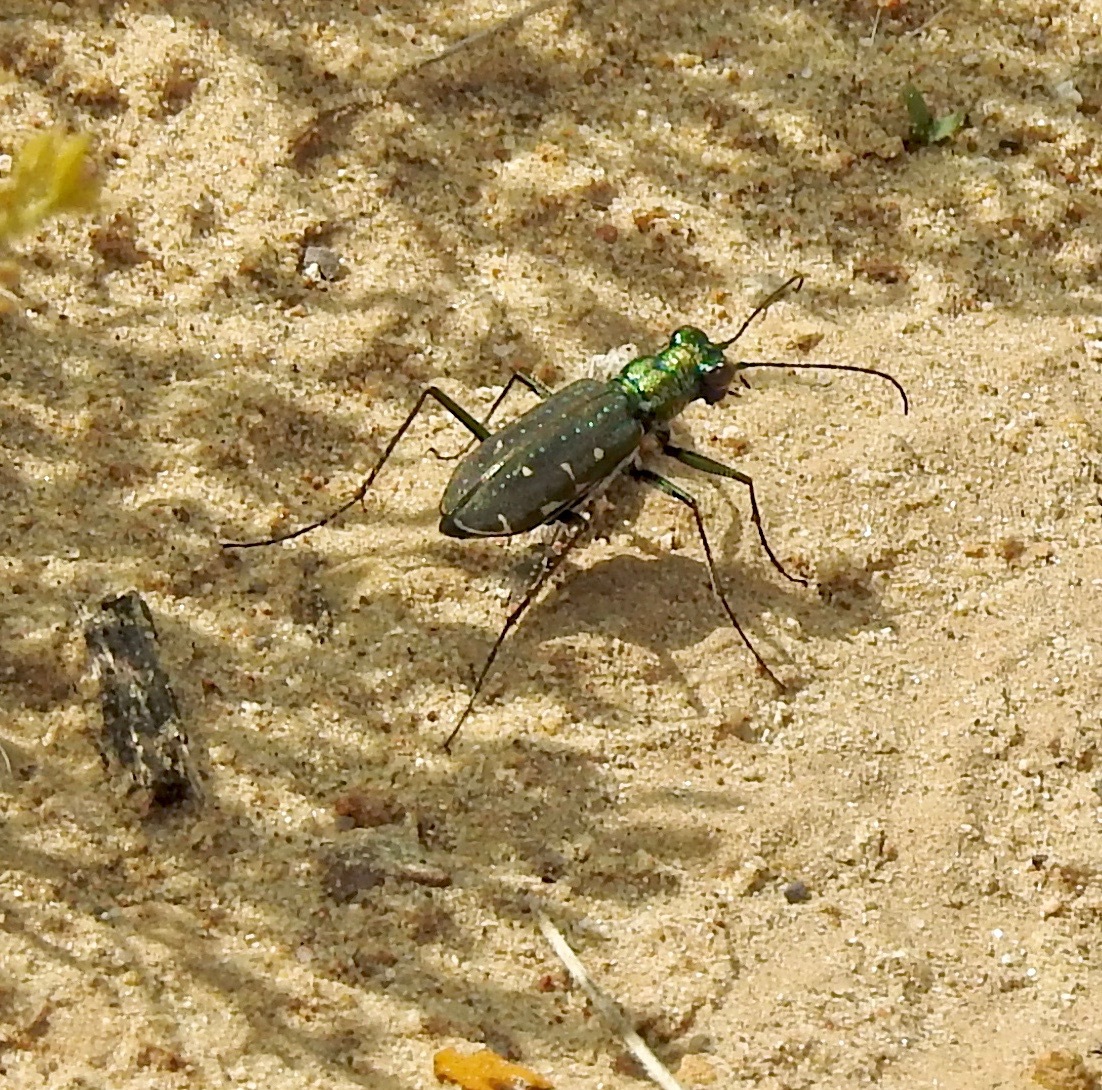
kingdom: Animalia
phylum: Arthropoda
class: Insecta
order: Coleoptera
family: Carabidae
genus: Cicindela
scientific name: Cicindela punctulata
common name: Punctured tiger beetle
